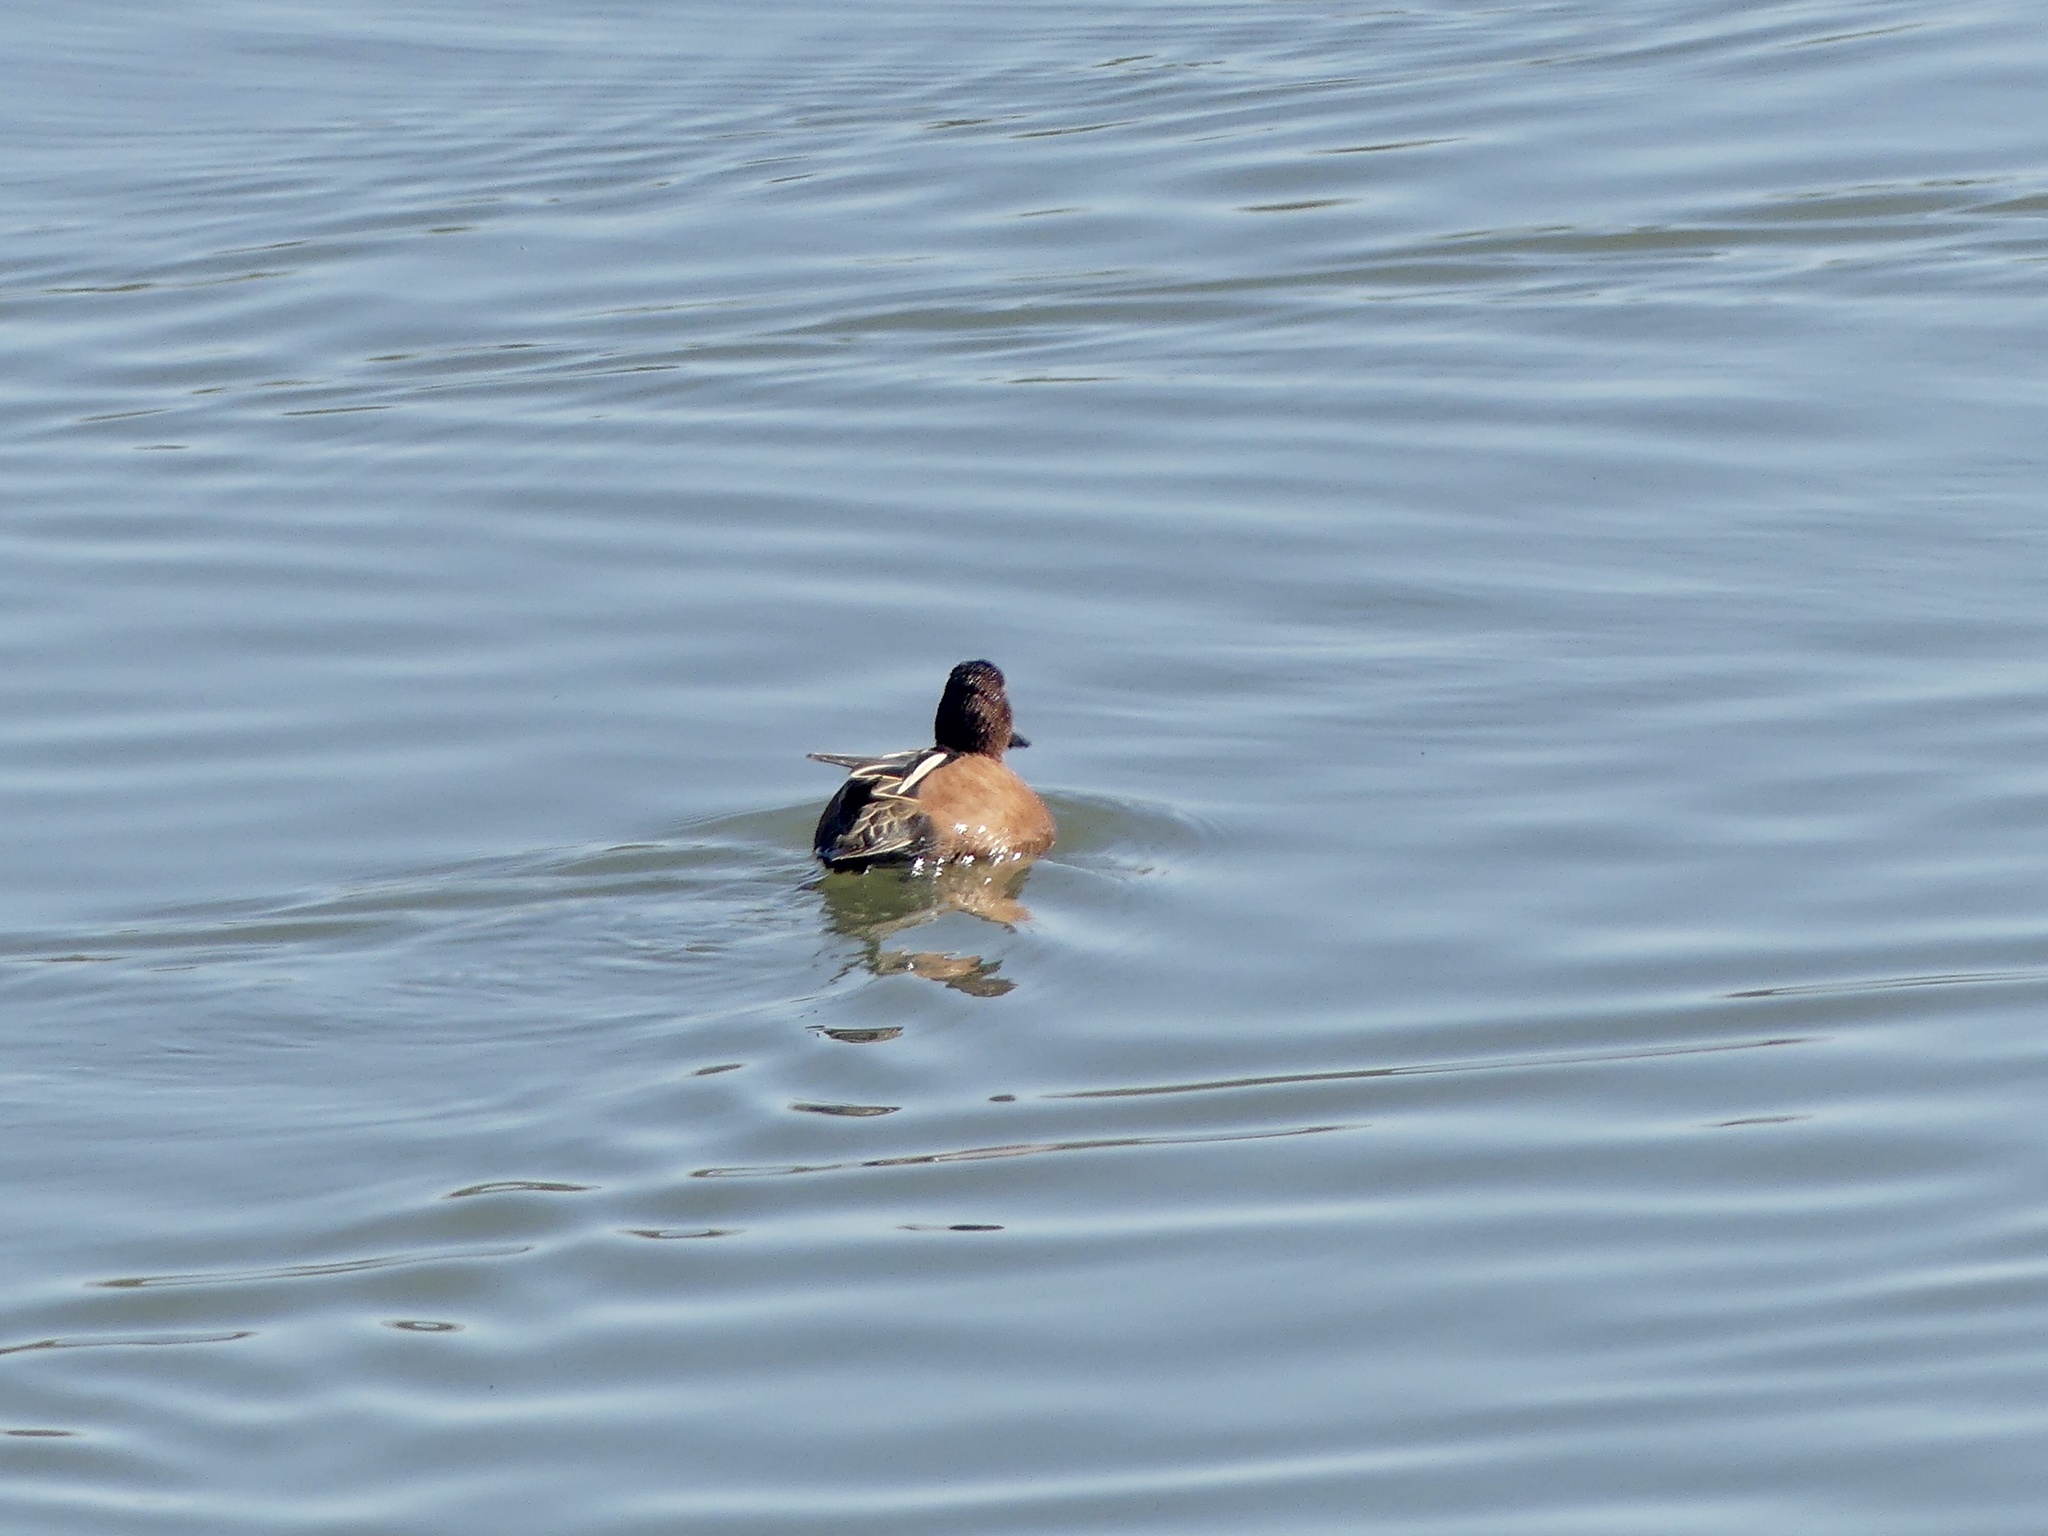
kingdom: Animalia
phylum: Chordata
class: Aves
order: Anseriformes
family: Anatidae
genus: Spatula
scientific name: Spatula cyanoptera
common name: Cinnamon teal
